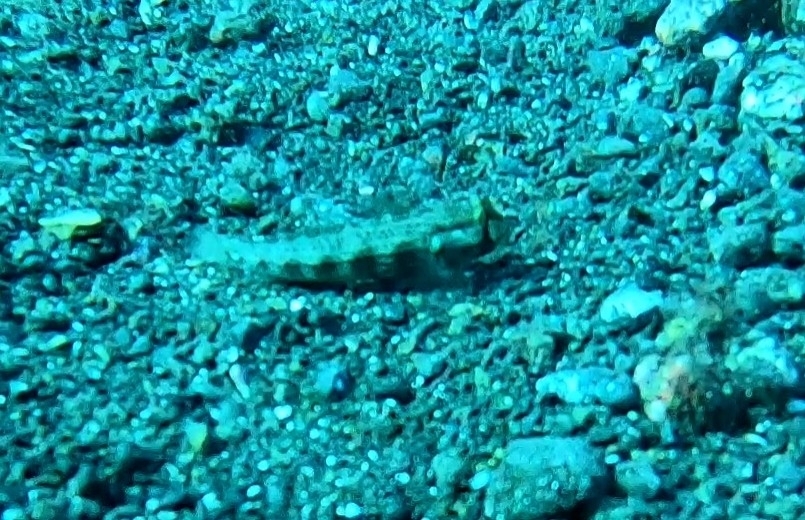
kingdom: Animalia
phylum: Chordata
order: Perciformes
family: Gobiidae
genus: Gnatholepis
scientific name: Gnatholepis thompsoni
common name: Goldspot goby
